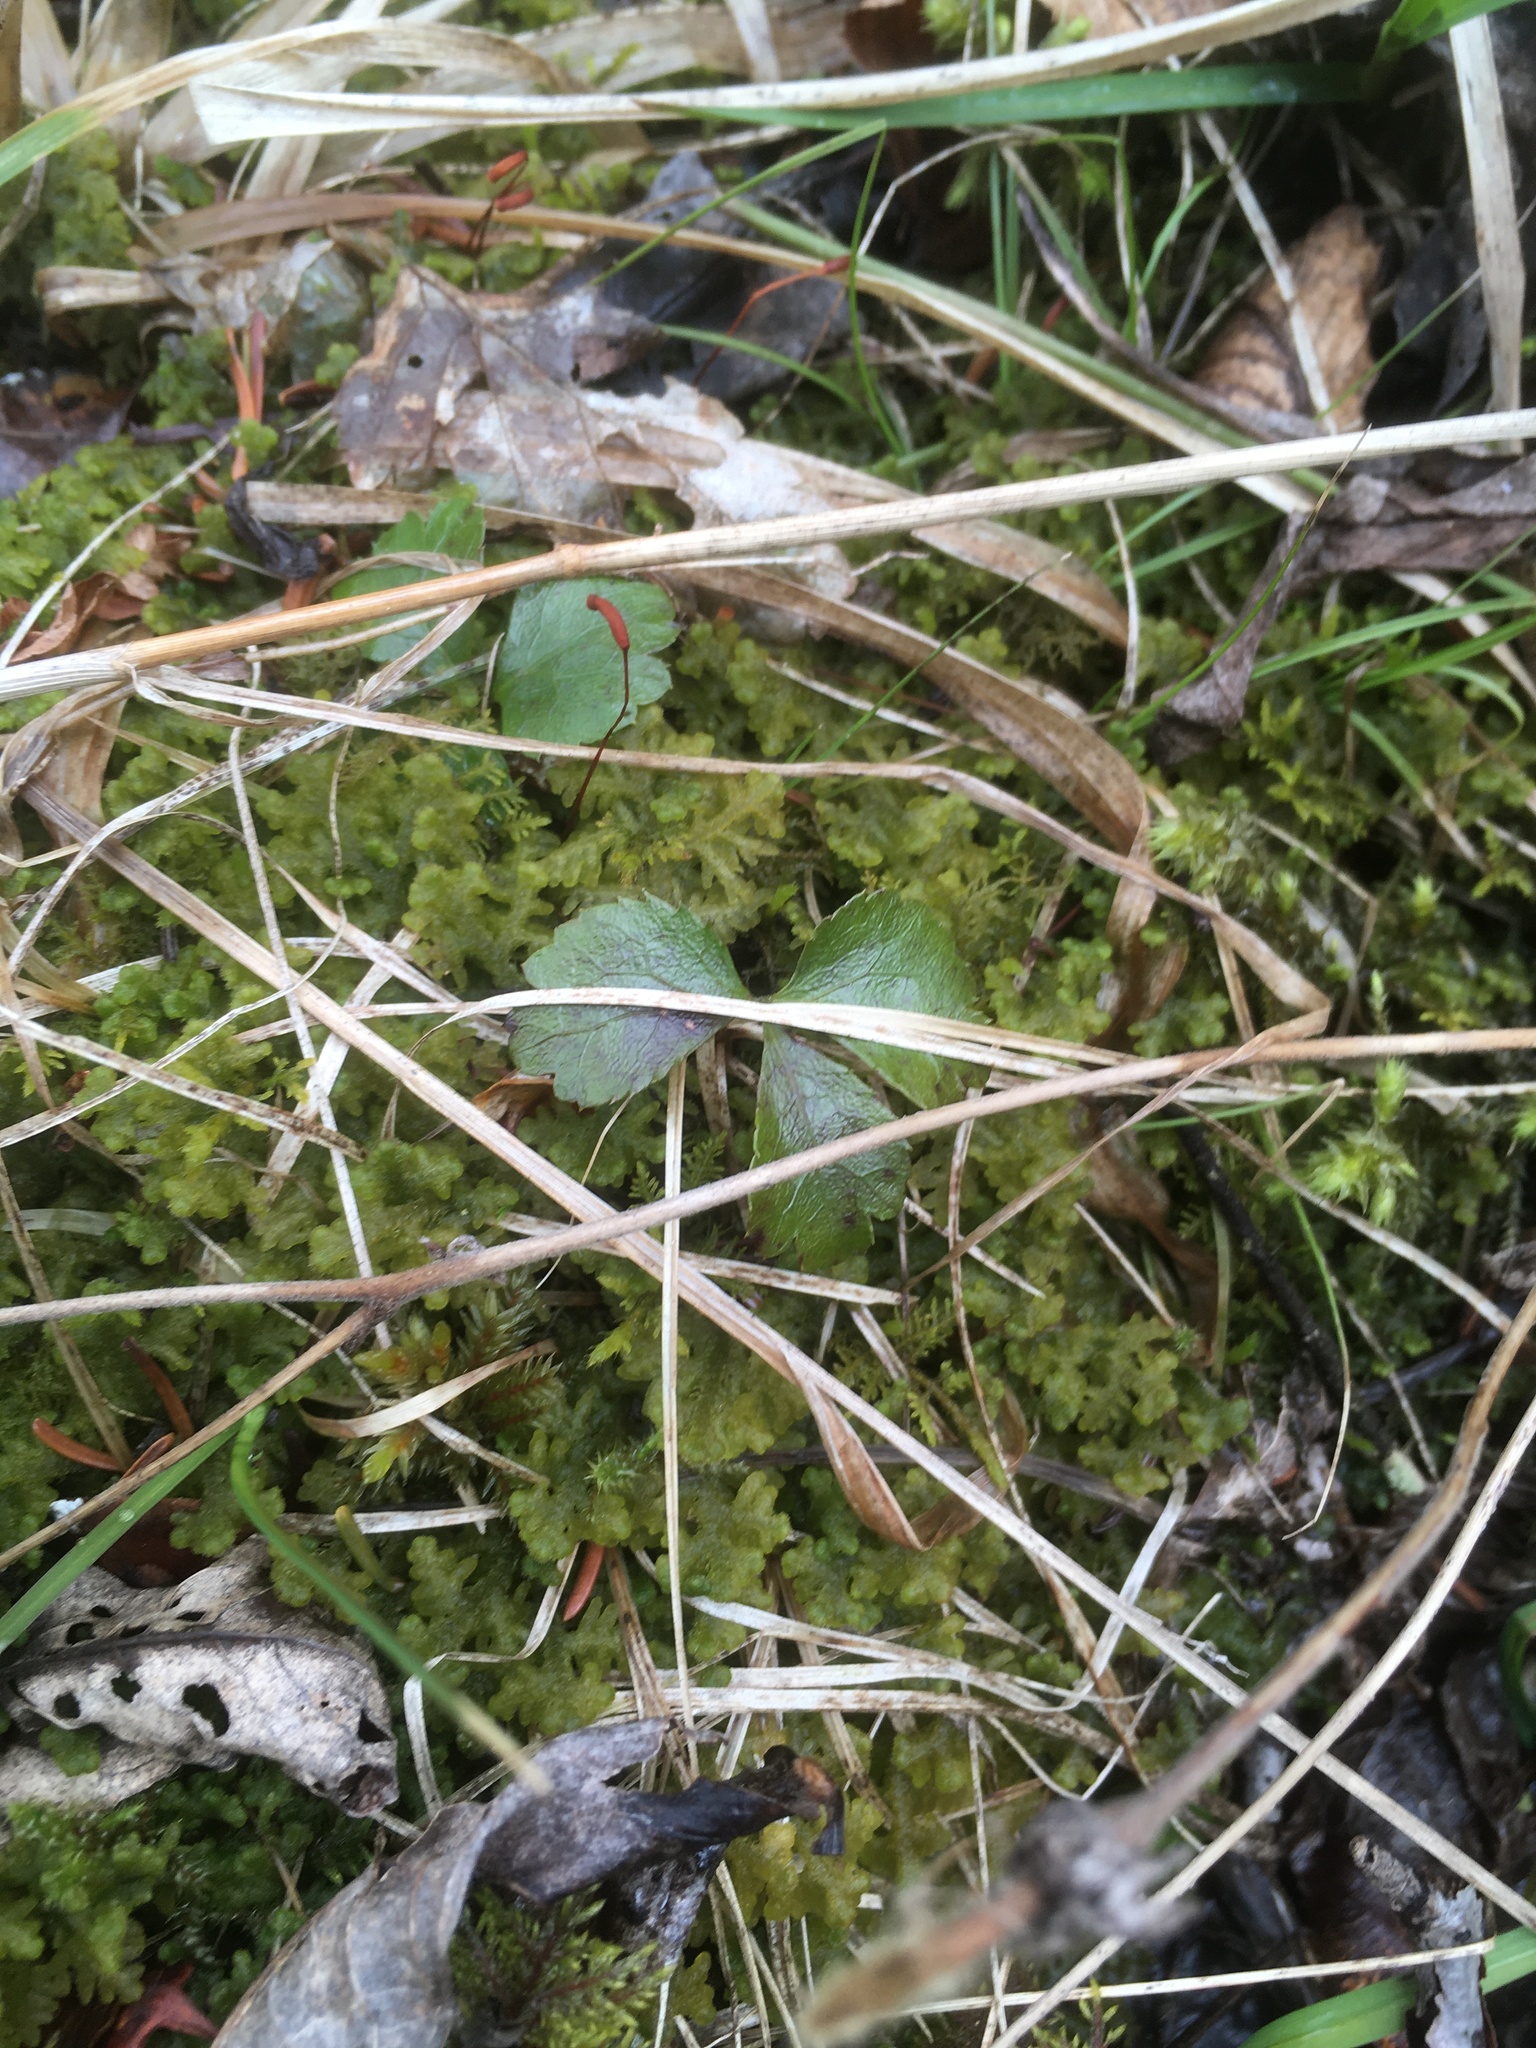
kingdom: Plantae
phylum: Tracheophyta
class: Magnoliopsida
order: Ranunculales
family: Ranunculaceae
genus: Coptis
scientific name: Coptis trifolia
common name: Canker-root
